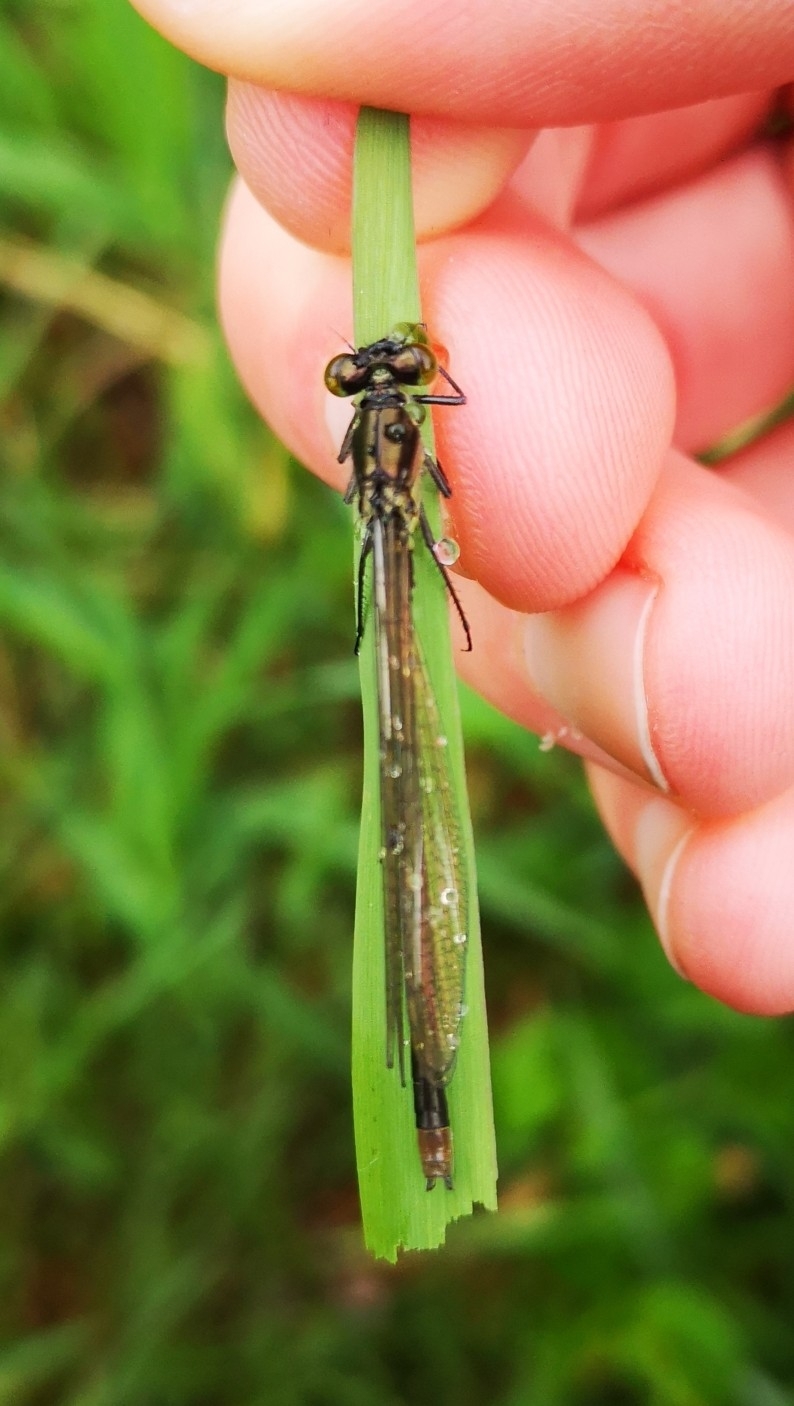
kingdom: Animalia
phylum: Arthropoda
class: Insecta
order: Odonata
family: Coenagrionidae
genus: Erythromma
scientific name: Erythromma najas
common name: Red-eyed damselfly
